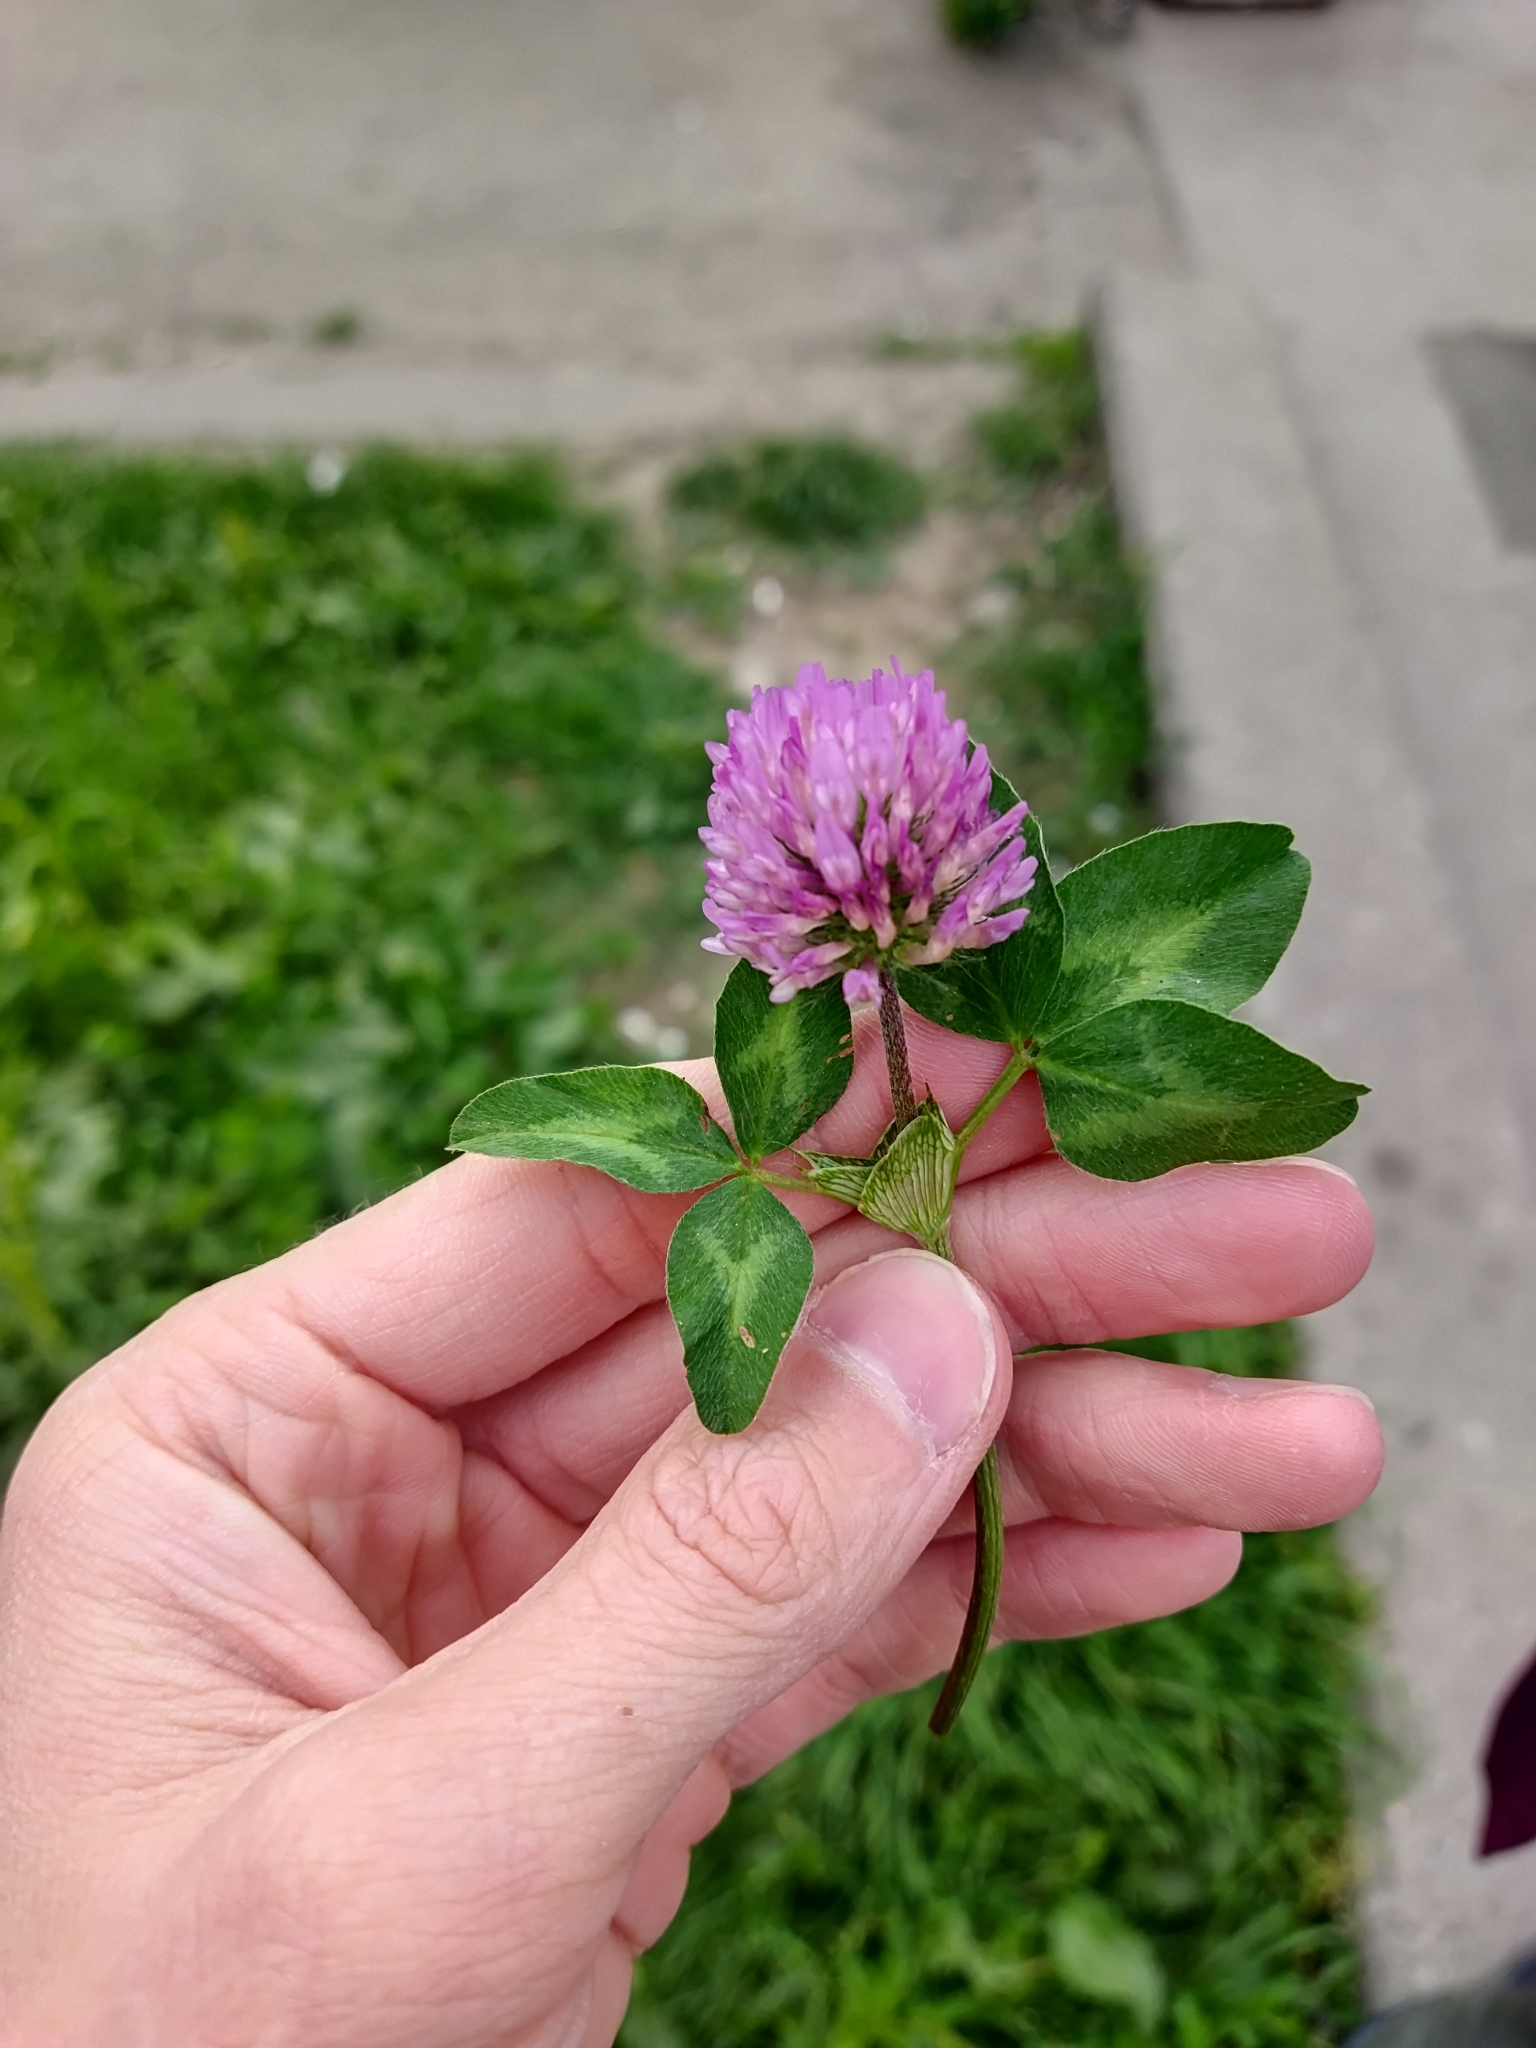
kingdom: Plantae
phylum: Tracheophyta
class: Magnoliopsida
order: Fabales
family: Fabaceae
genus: Trifolium
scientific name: Trifolium pratense
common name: Red clover
